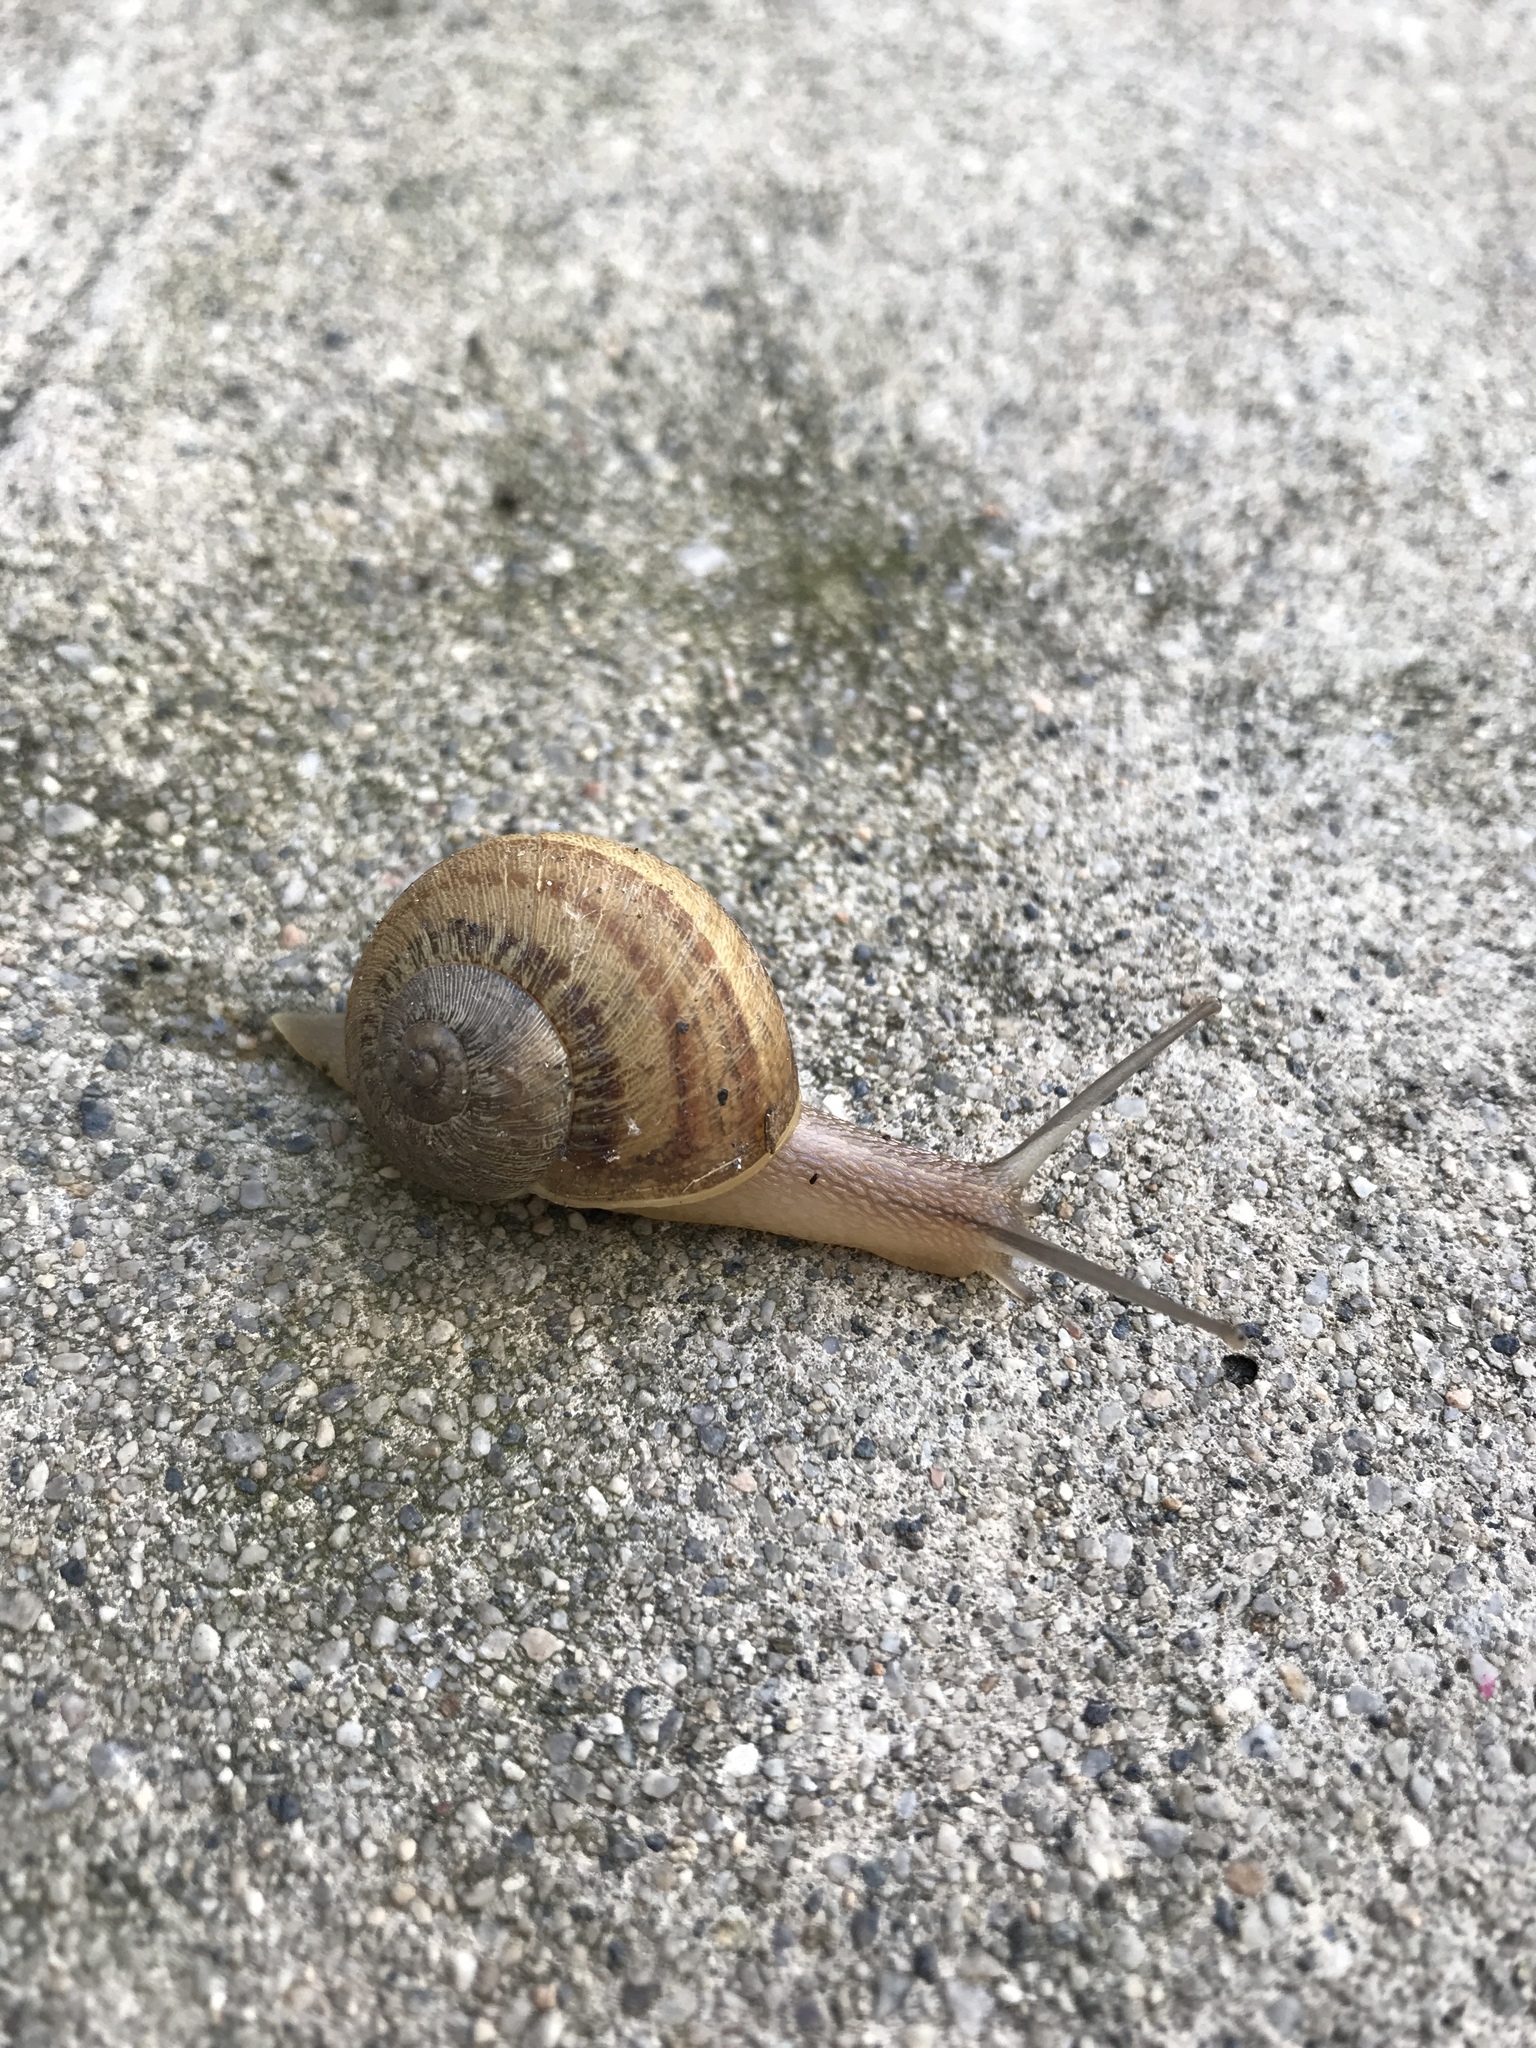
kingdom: Animalia
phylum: Mollusca
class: Gastropoda
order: Stylommatophora
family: Helicidae
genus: Cornu
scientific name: Cornu aspersum
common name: Brown garden snail
